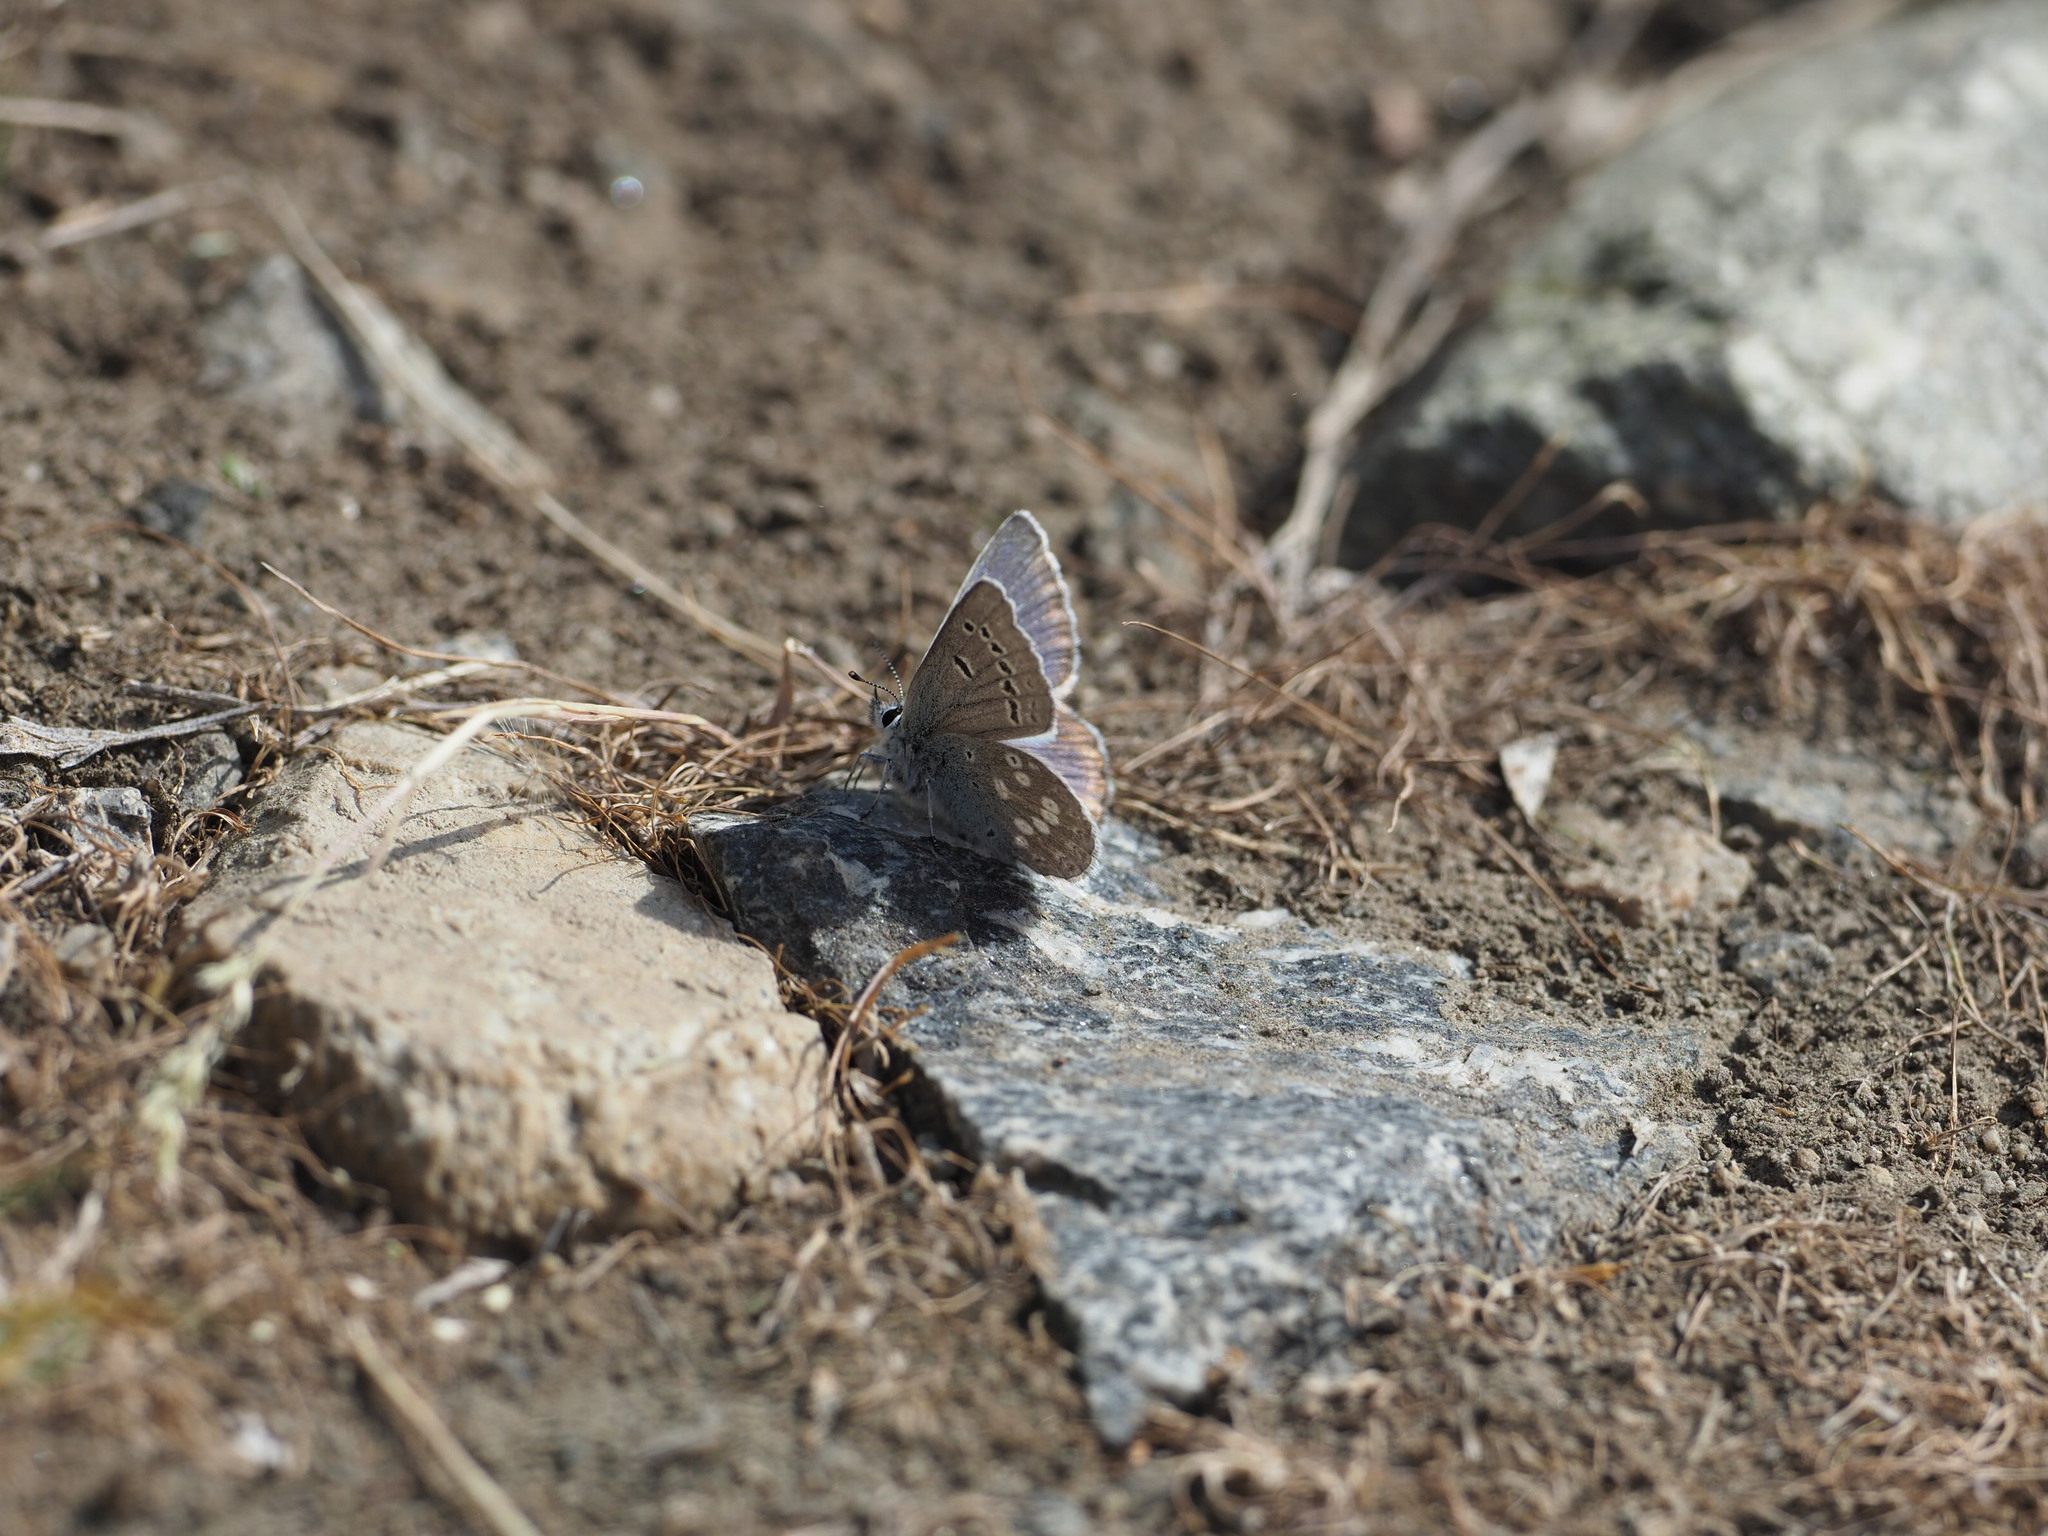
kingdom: Animalia
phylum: Arthropoda
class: Insecta
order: Lepidoptera
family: Lycaenidae
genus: Icaricia
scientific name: Icaricia icarioides
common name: Boisduval's blue
